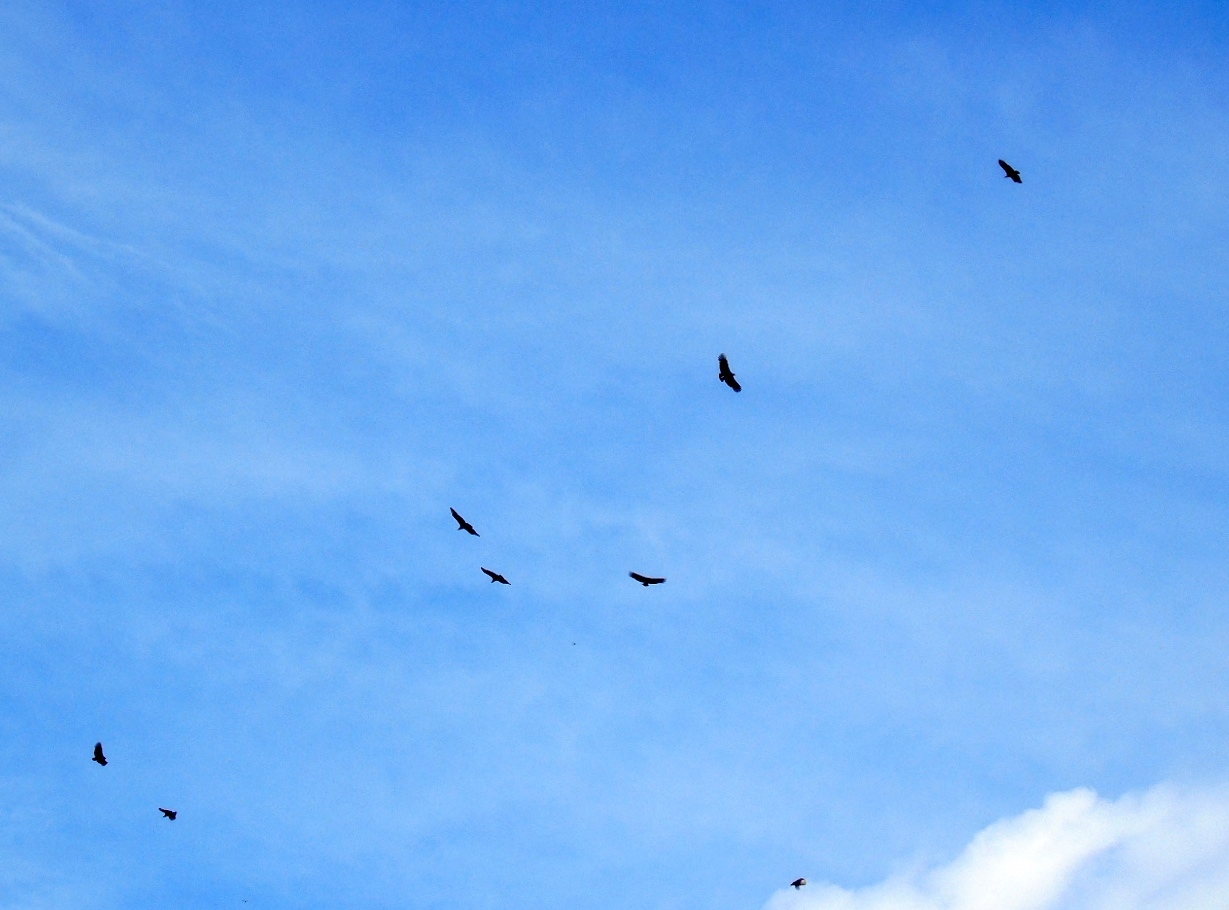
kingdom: Animalia
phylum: Chordata
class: Aves
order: Accipitriformes
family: Cathartidae
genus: Coragyps
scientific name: Coragyps atratus
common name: Black vulture
